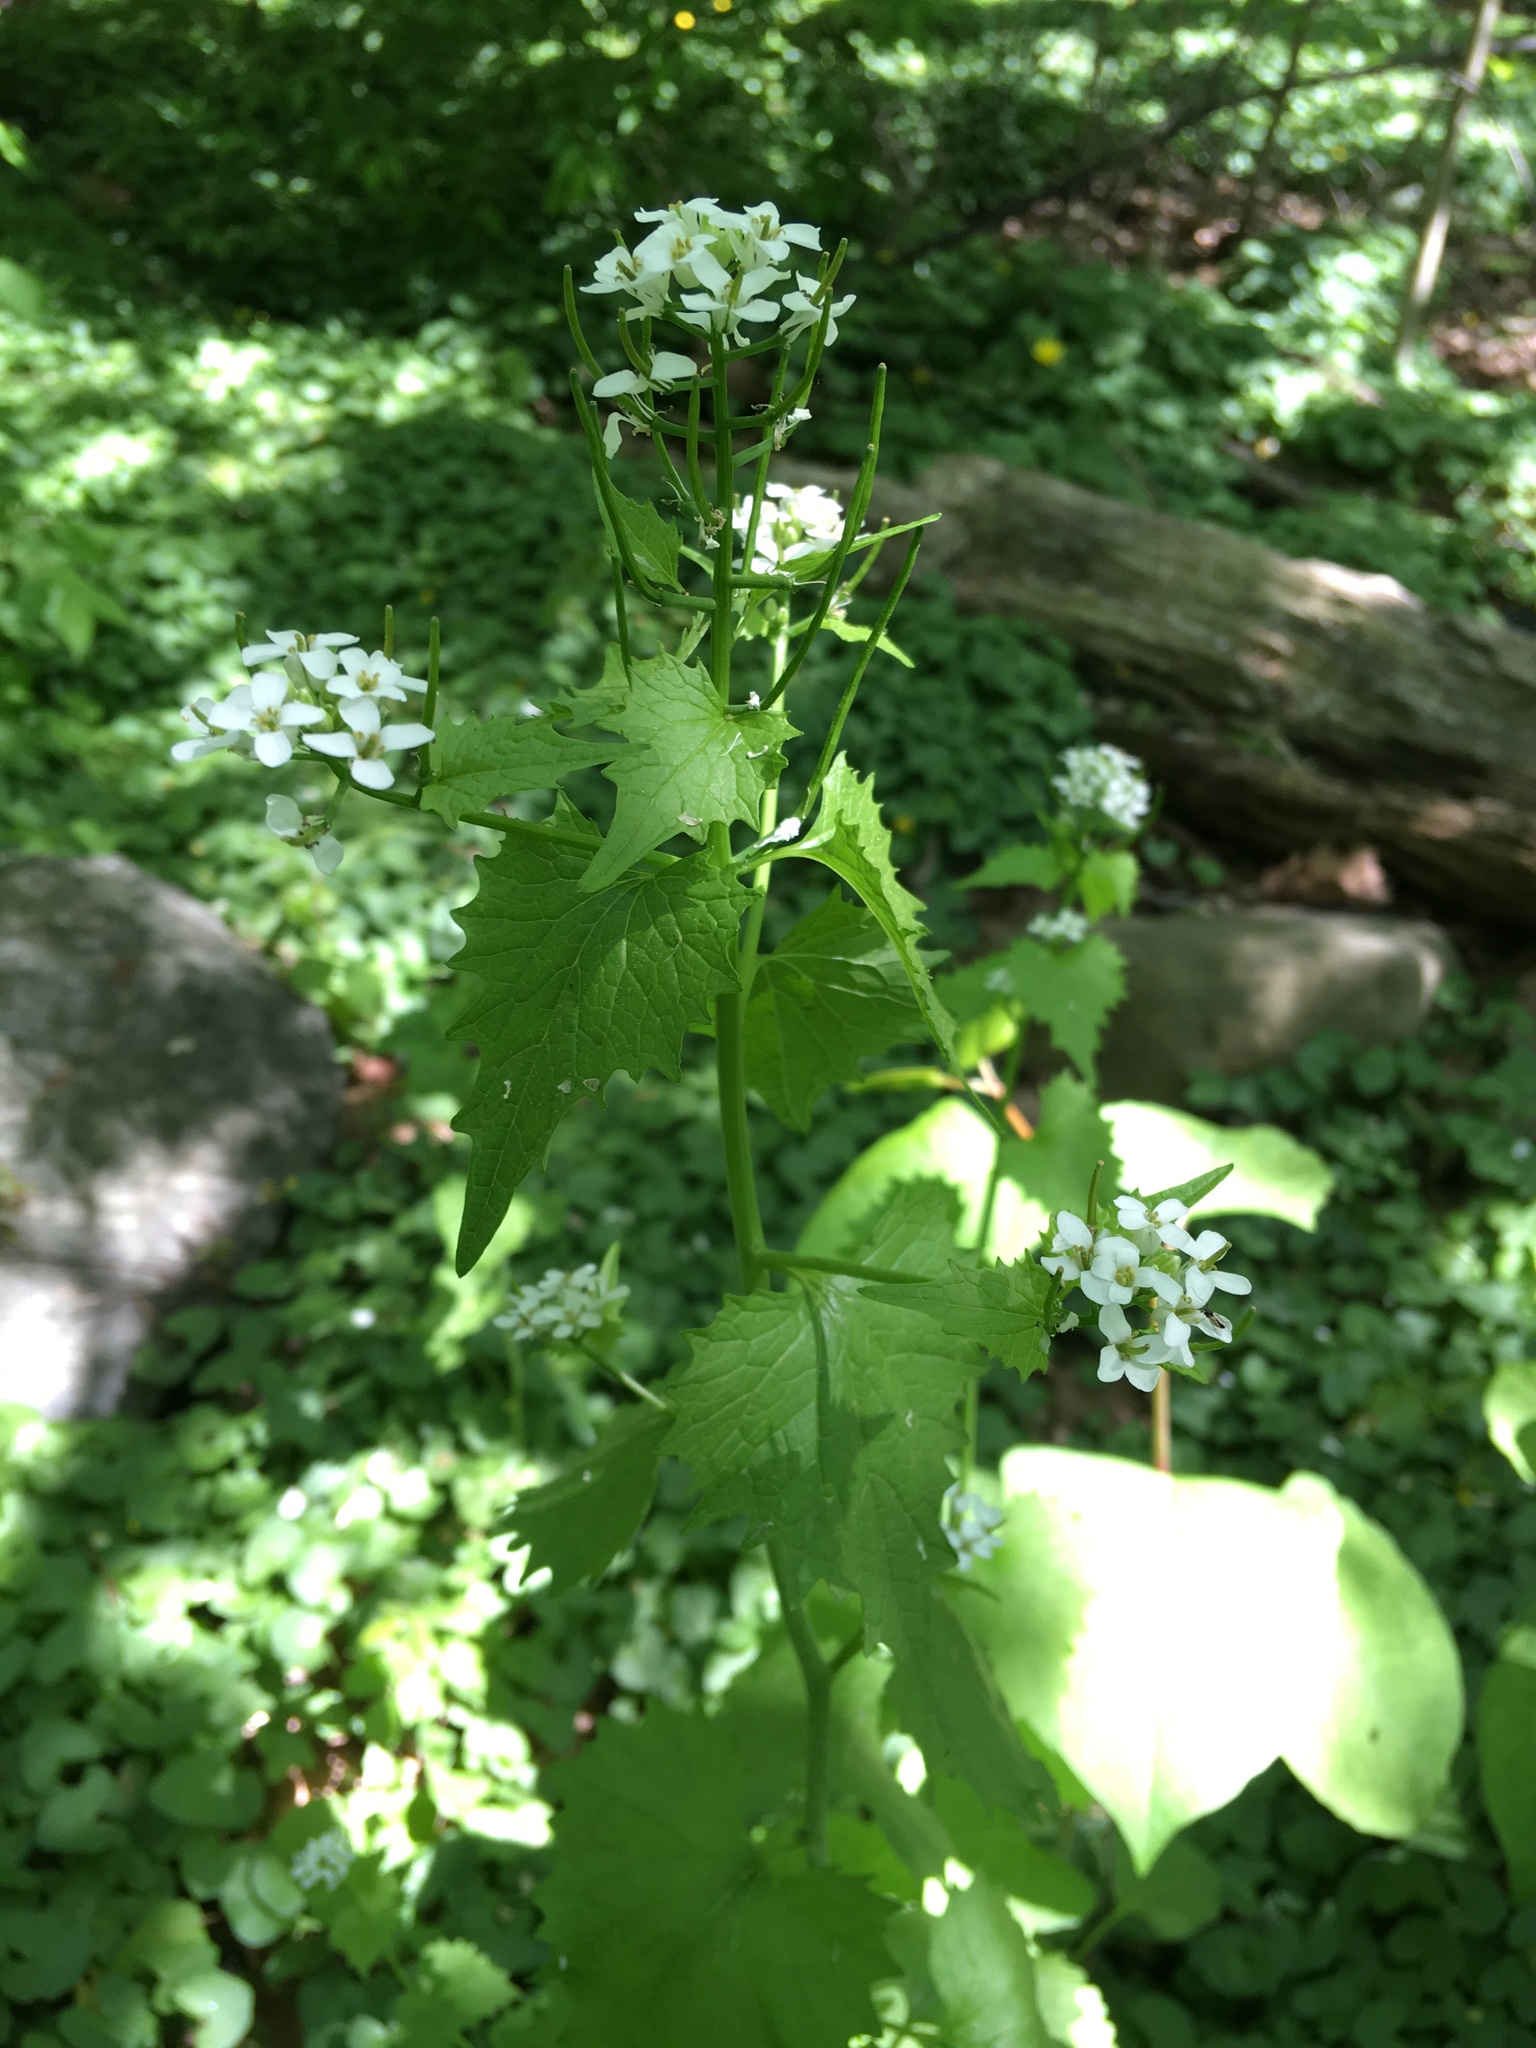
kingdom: Plantae
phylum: Tracheophyta
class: Magnoliopsida
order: Brassicales
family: Brassicaceae
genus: Alliaria
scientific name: Alliaria petiolata
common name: Garlic mustard
